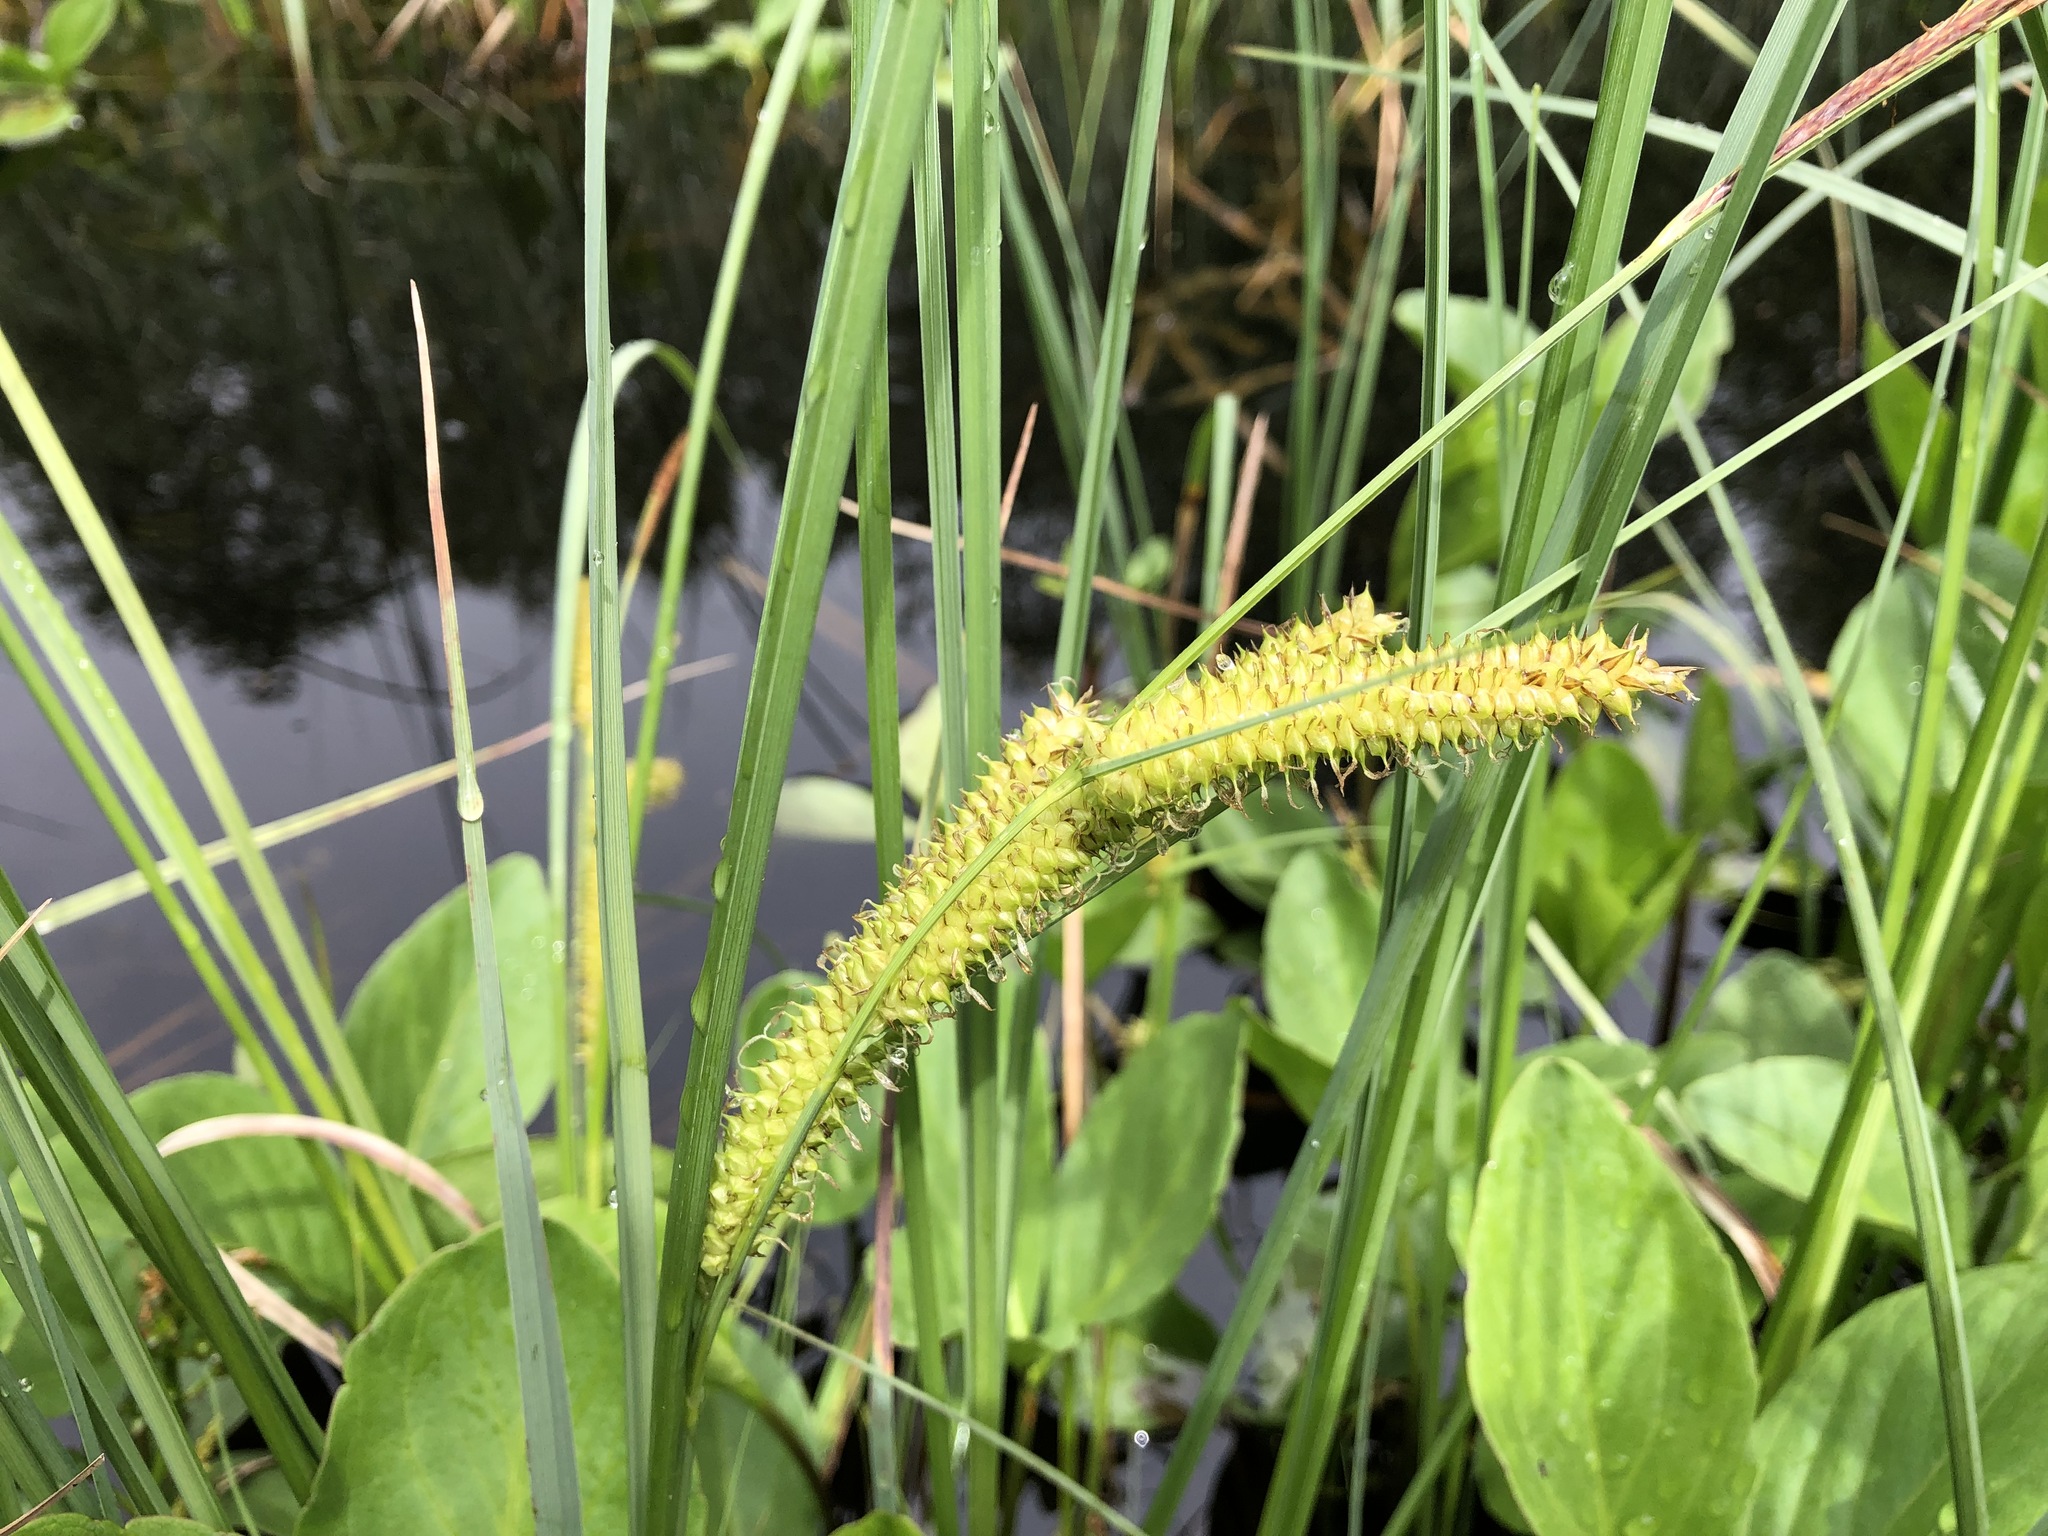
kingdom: Plantae
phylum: Tracheophyta
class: Liliopsida
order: Poales
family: Cyperaceae
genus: Carex
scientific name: Carex rostrata
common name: Bottle sedge
